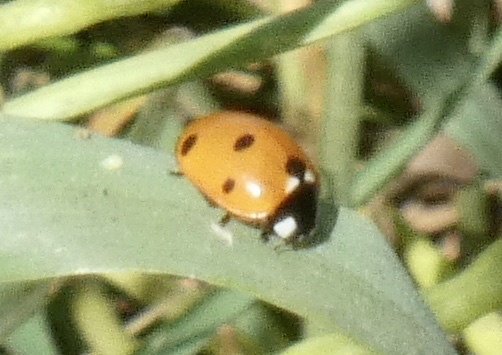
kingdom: Animalia
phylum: Arthropoda
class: Insecta
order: Coleoptera
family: Coccinellidae
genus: Coccinella
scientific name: Coccinella septempunctata
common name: Sevenspotted lady beetle
